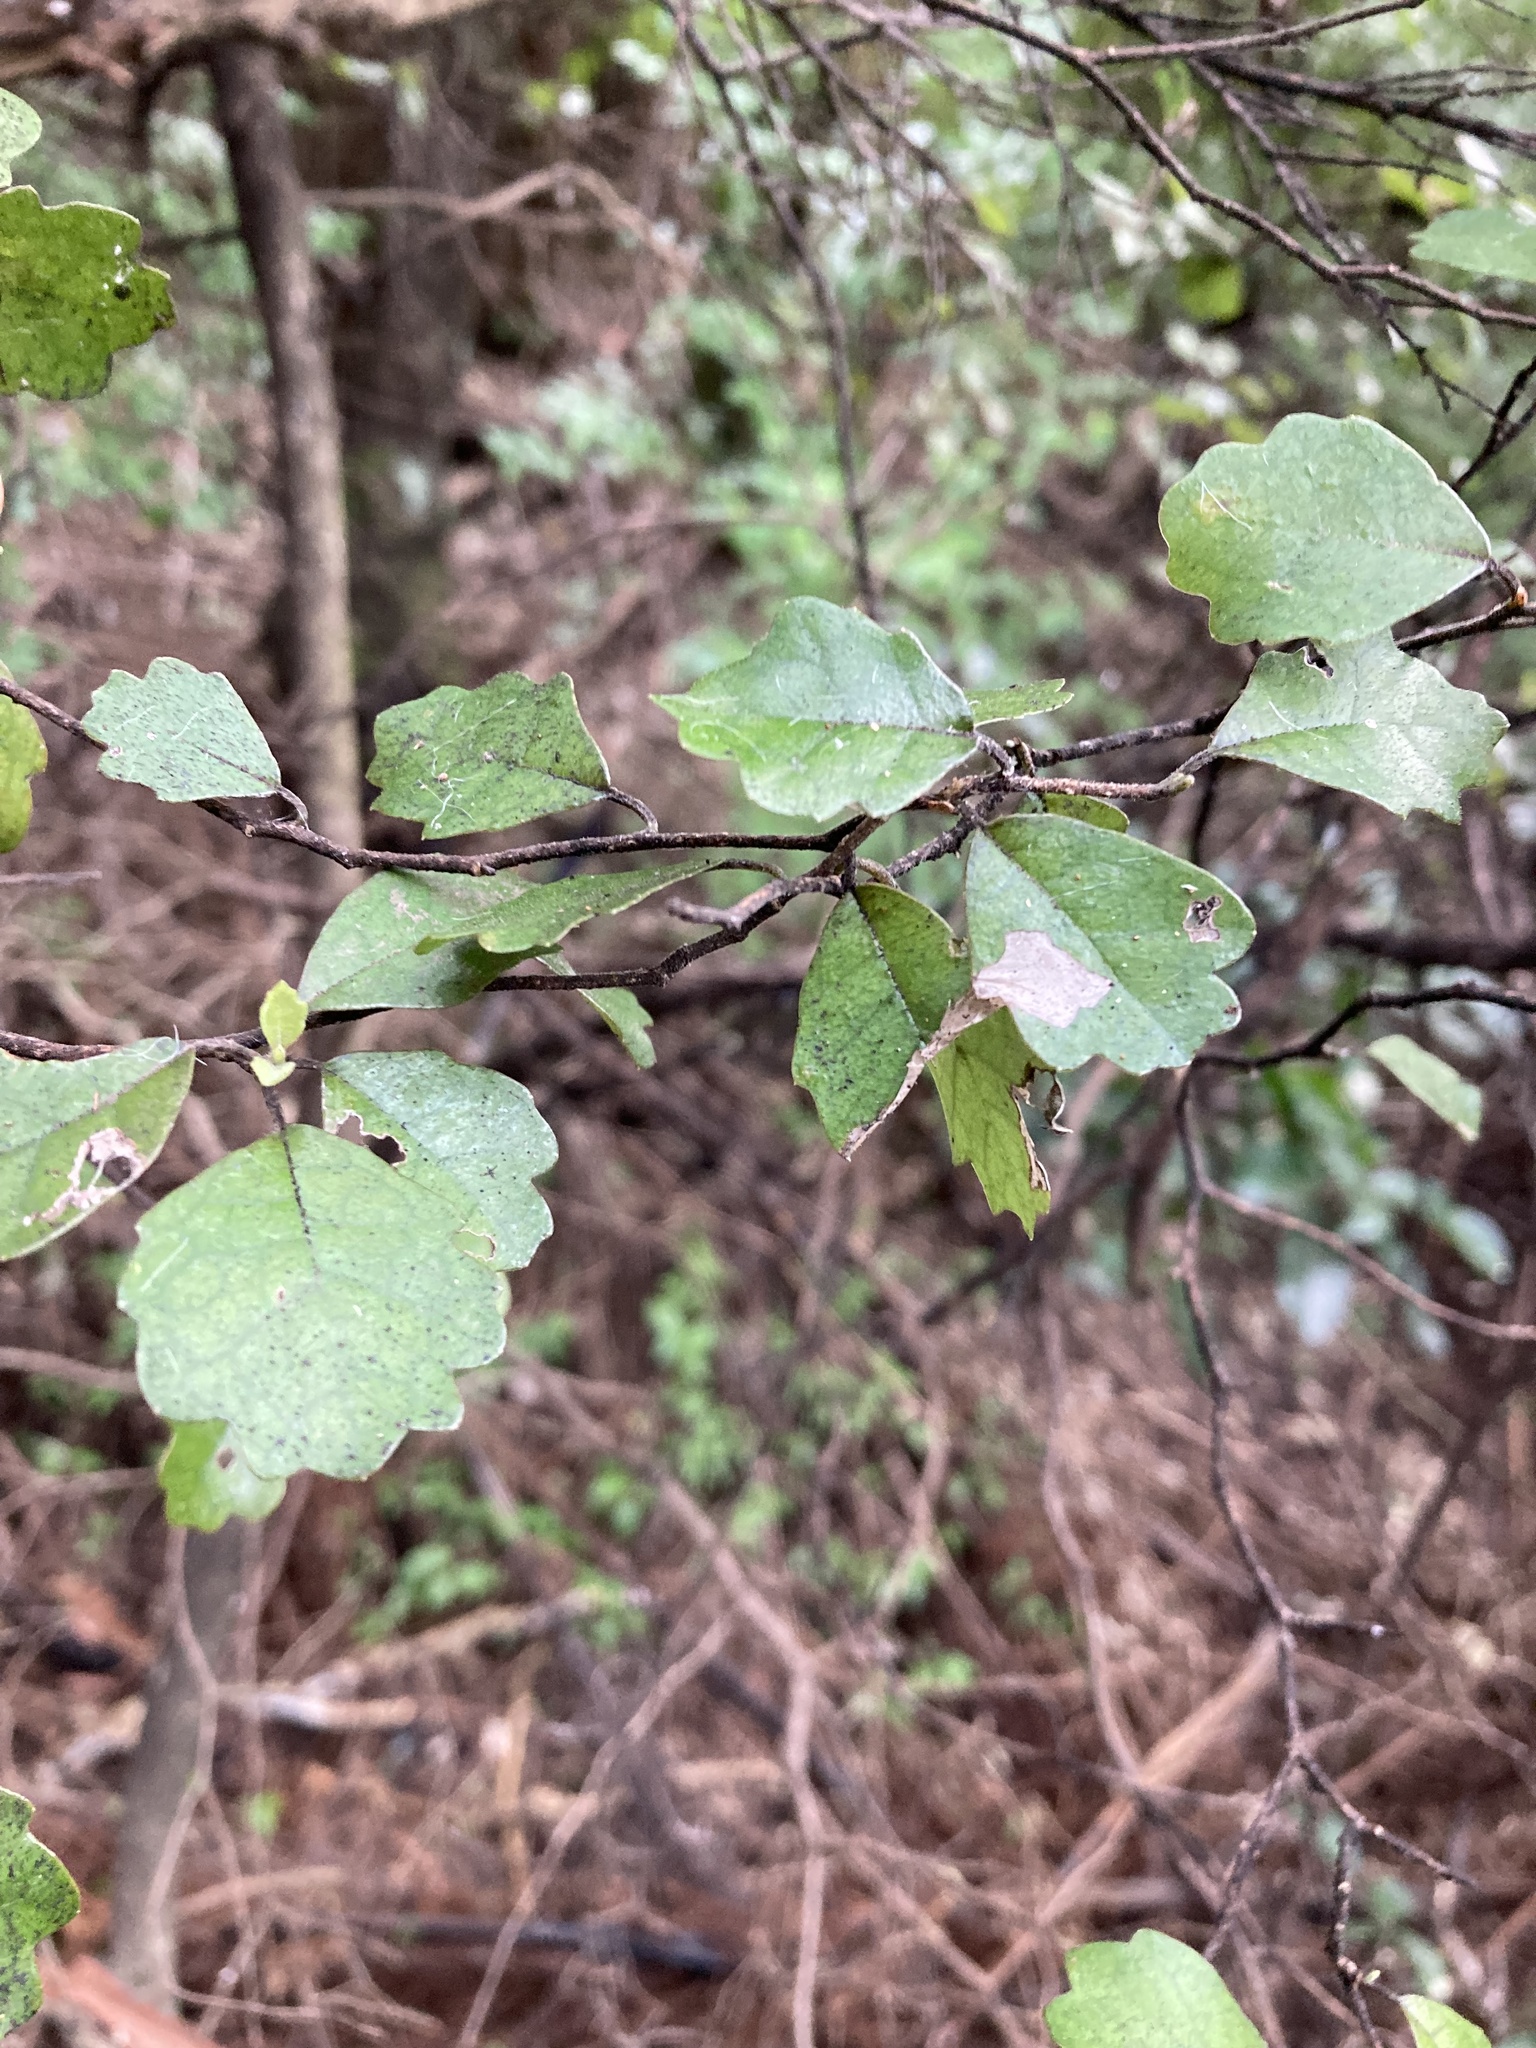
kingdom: Plantae
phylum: Tracheophyta
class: Magnoliopsida
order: Apiales
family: Pennantiaceae
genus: Pennantia
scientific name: Pennantia corymbosa
